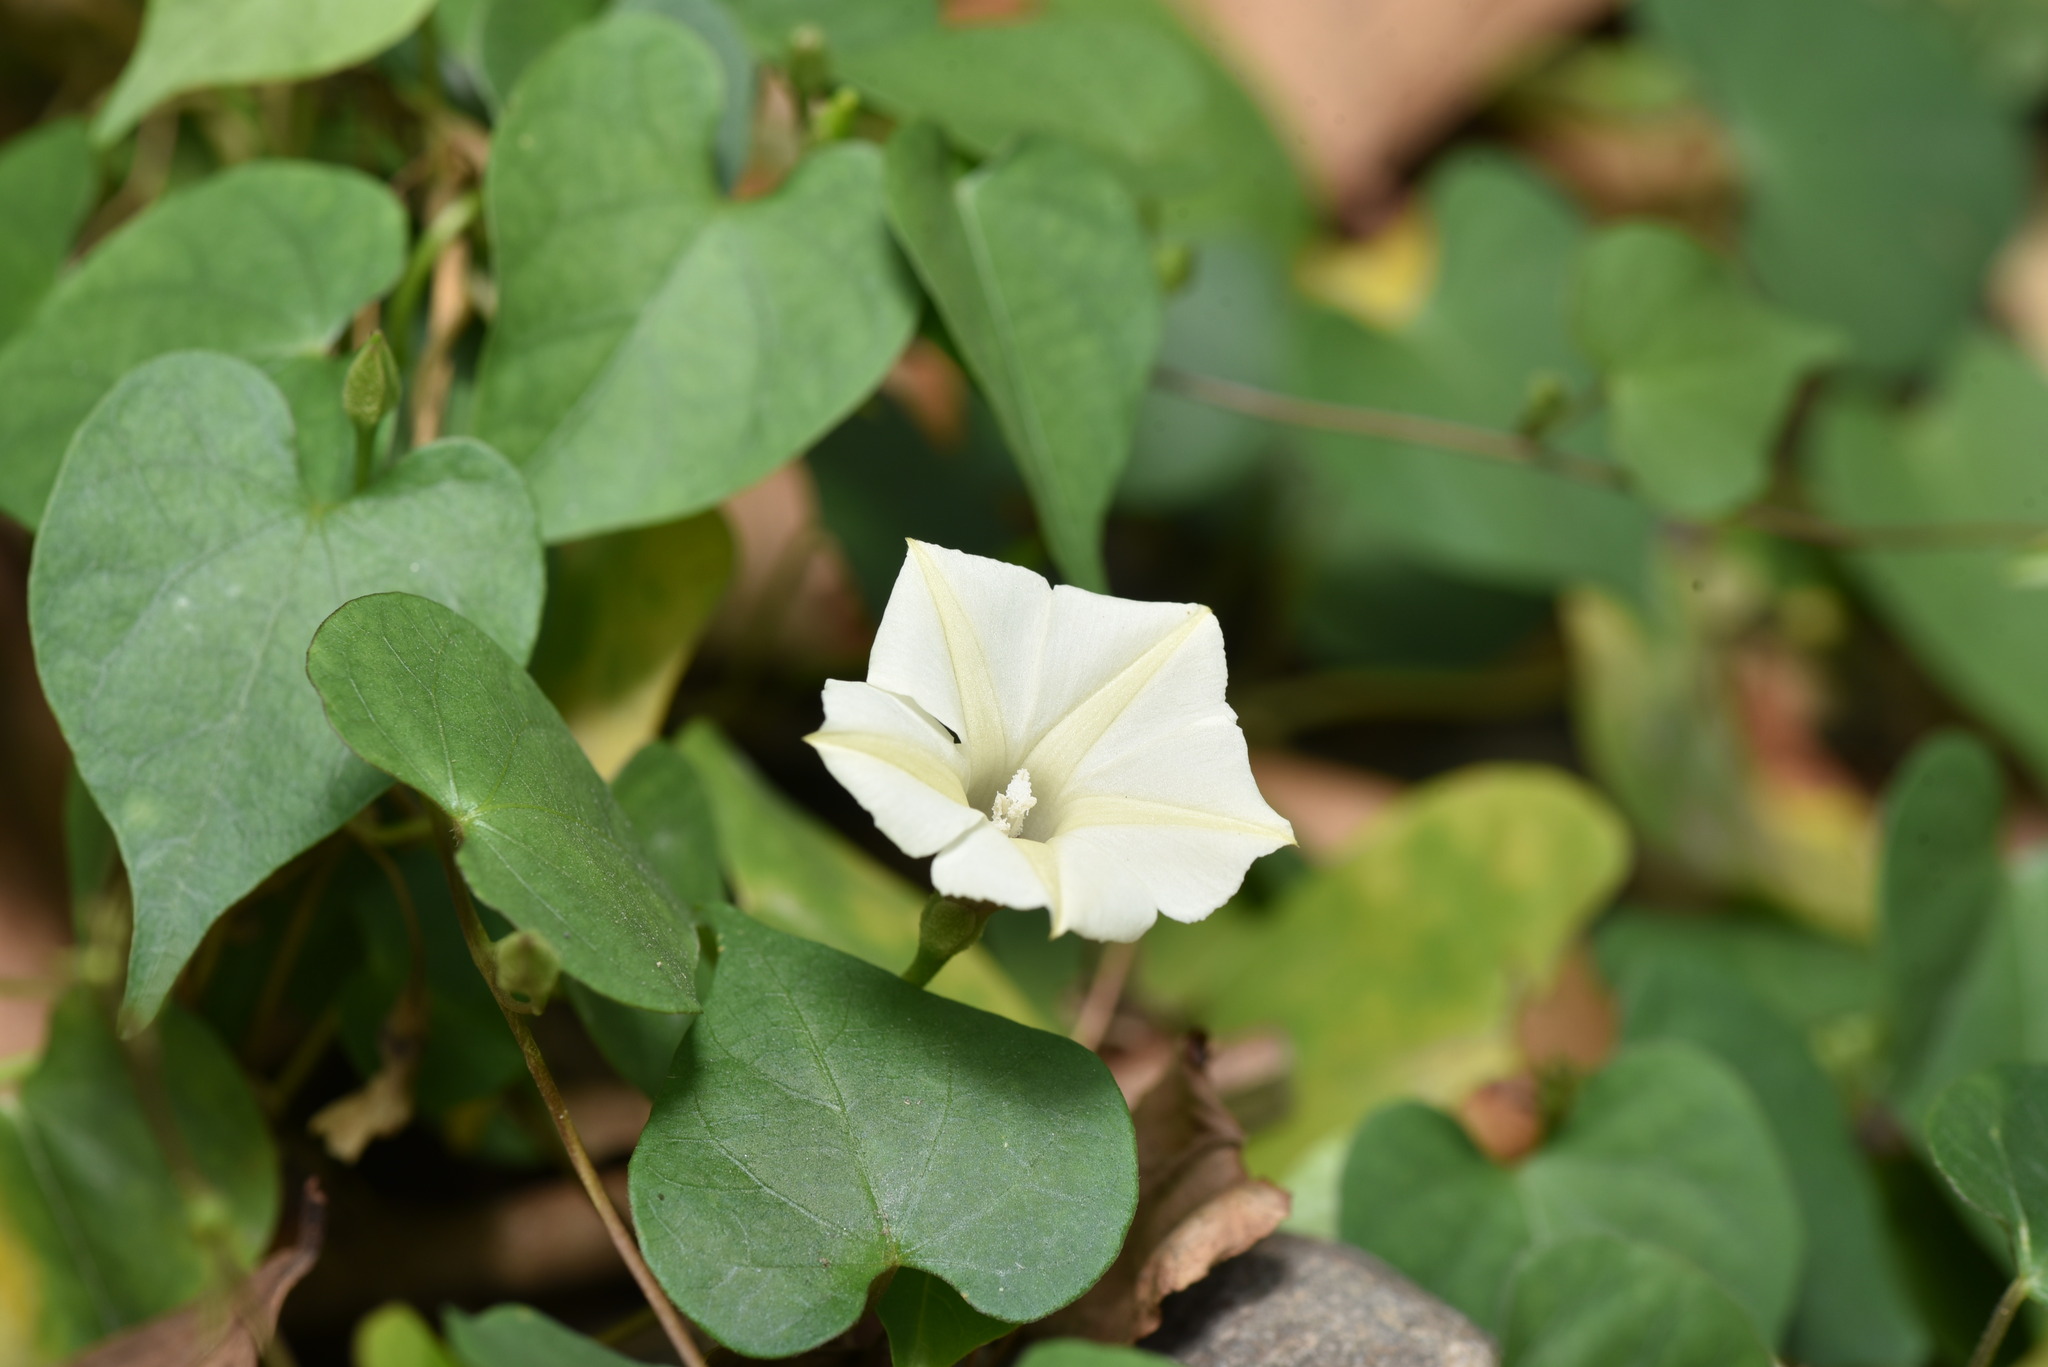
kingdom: Plantae
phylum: Tracheophyta
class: Magnoliopsida
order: Solanales
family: Convolvulaceae
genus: Ipomoea
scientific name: Ipomoea obscura
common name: Obscure morning-glory
